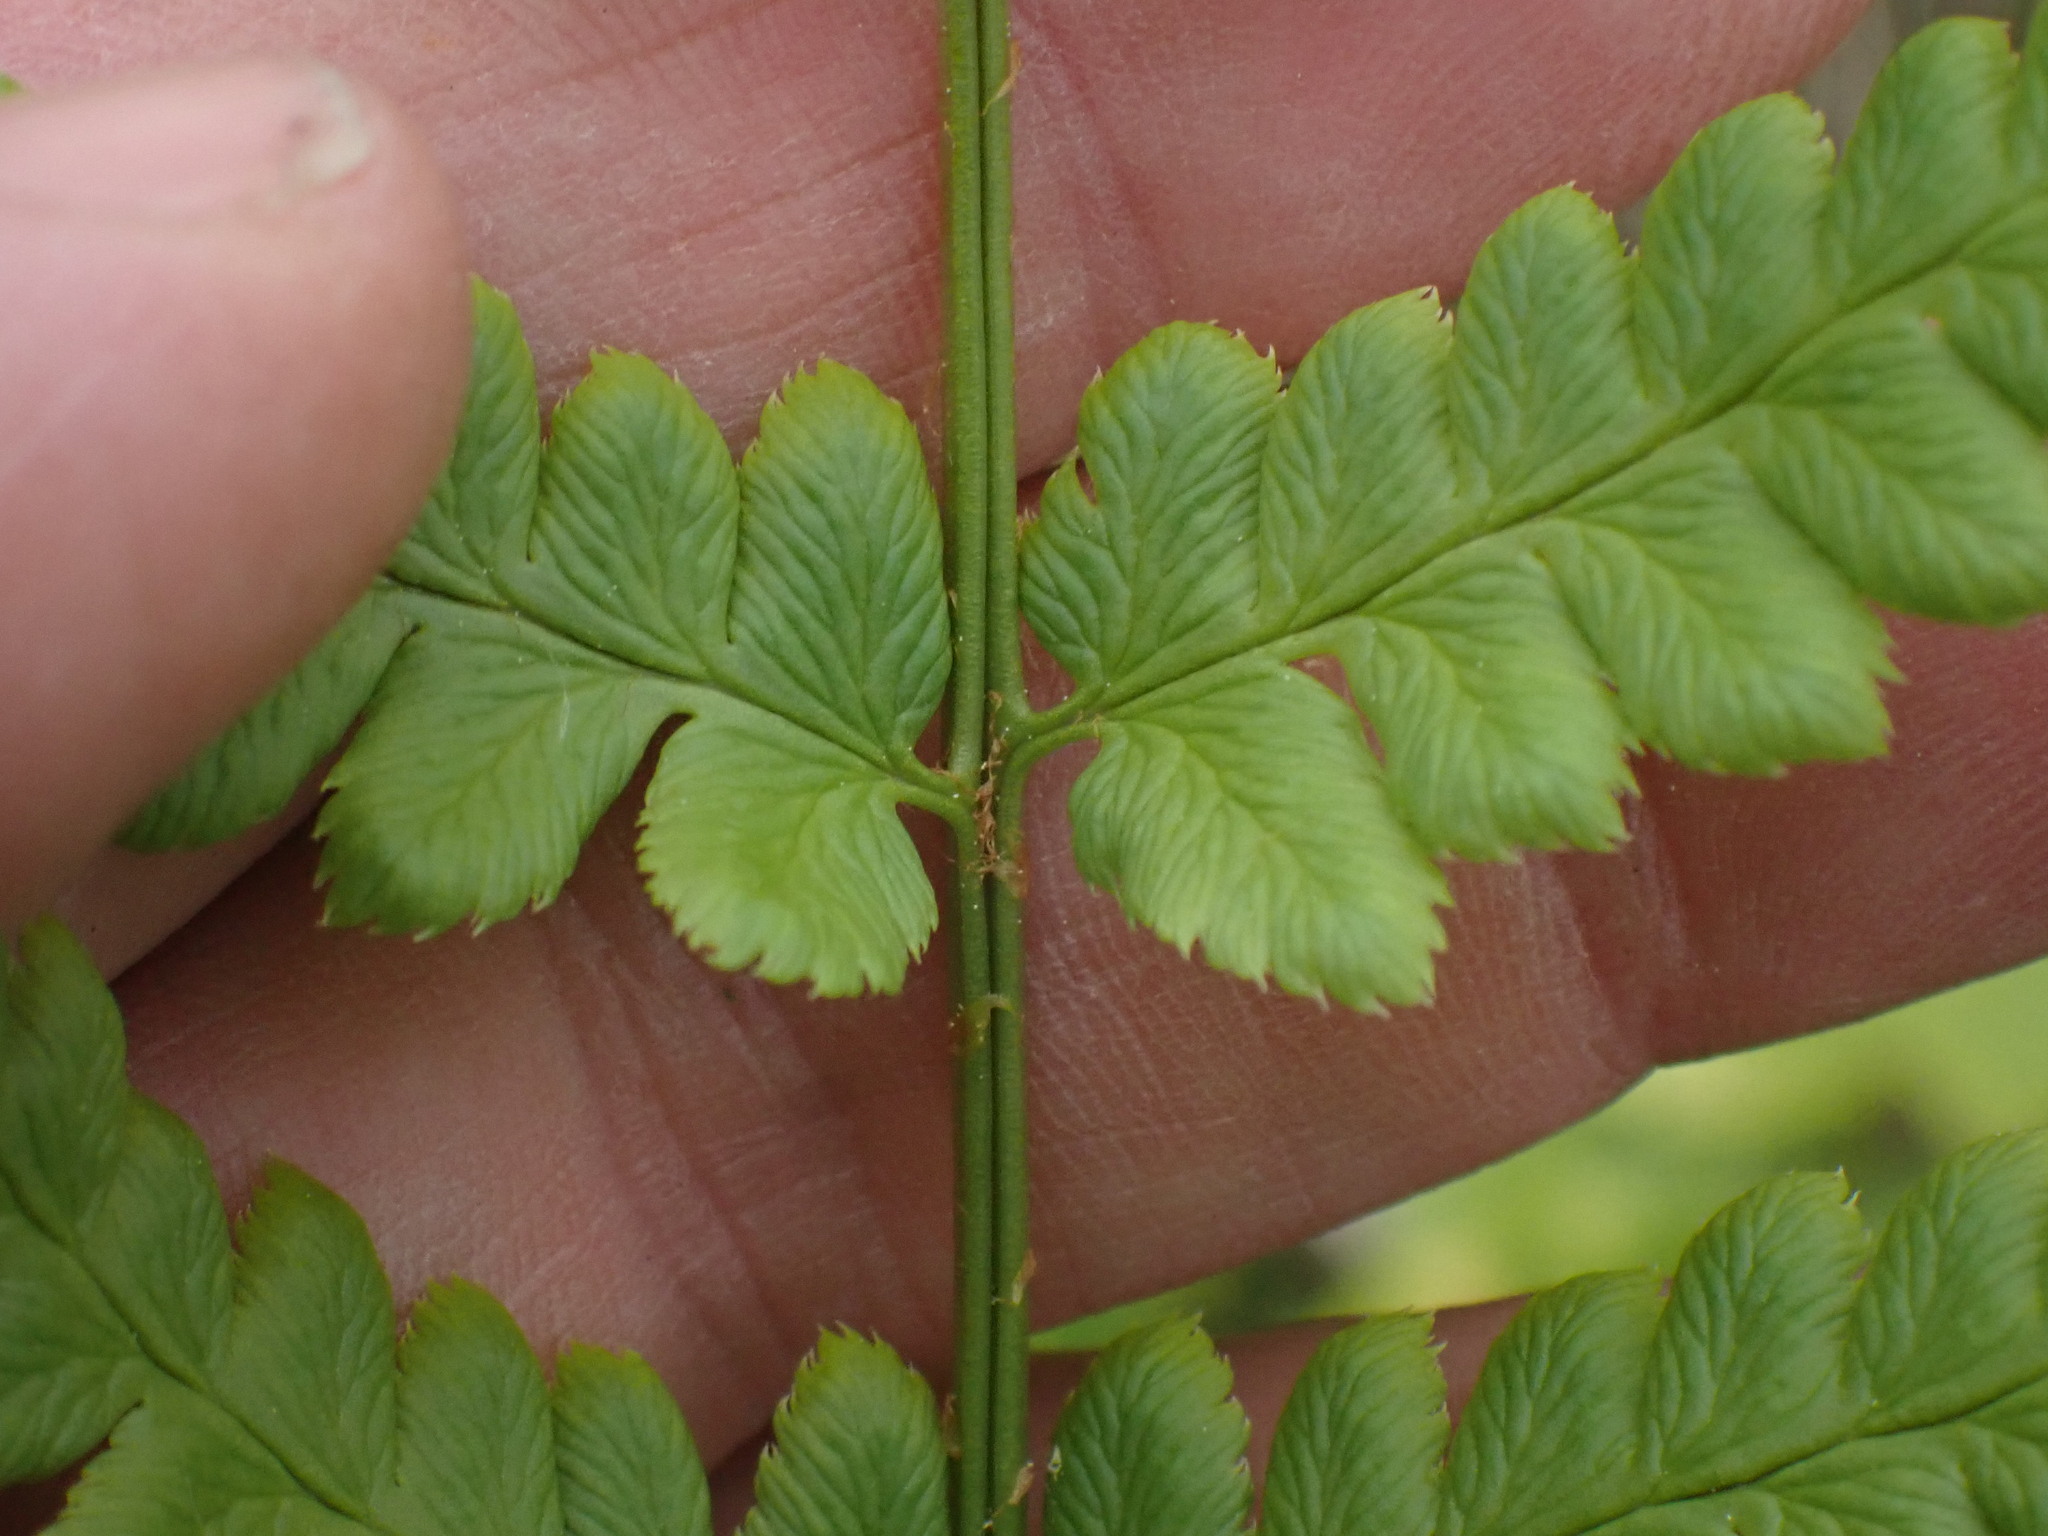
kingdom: Plantae
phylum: Tracheophyta
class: Polypodiopsida
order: Polypodiales
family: Dryopteridaceae
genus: Dryopteris
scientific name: Dryopteris cristata
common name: Crested wood fern
